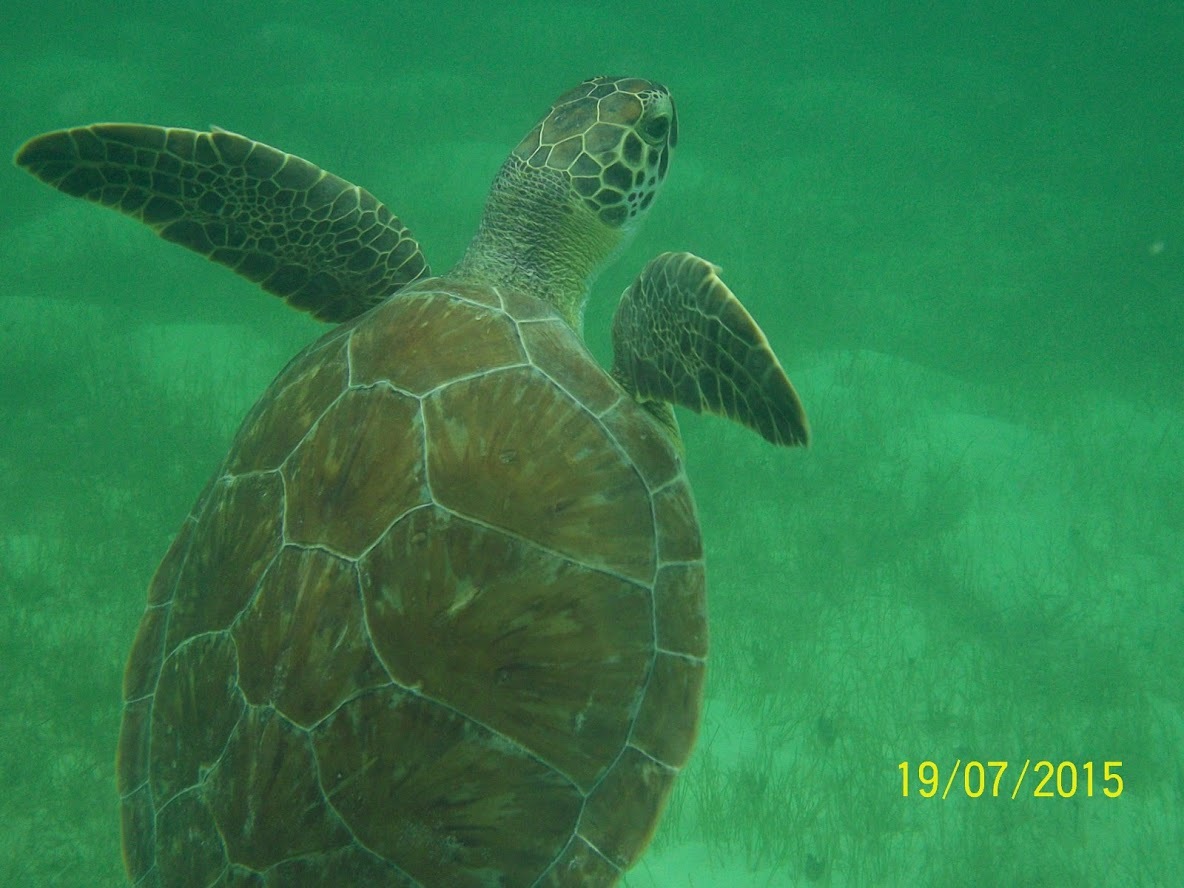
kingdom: Animalia
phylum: Chordata
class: Testudines
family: Cheloniidae
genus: Chelonia
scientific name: Chelonia mydas
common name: Green turtle
